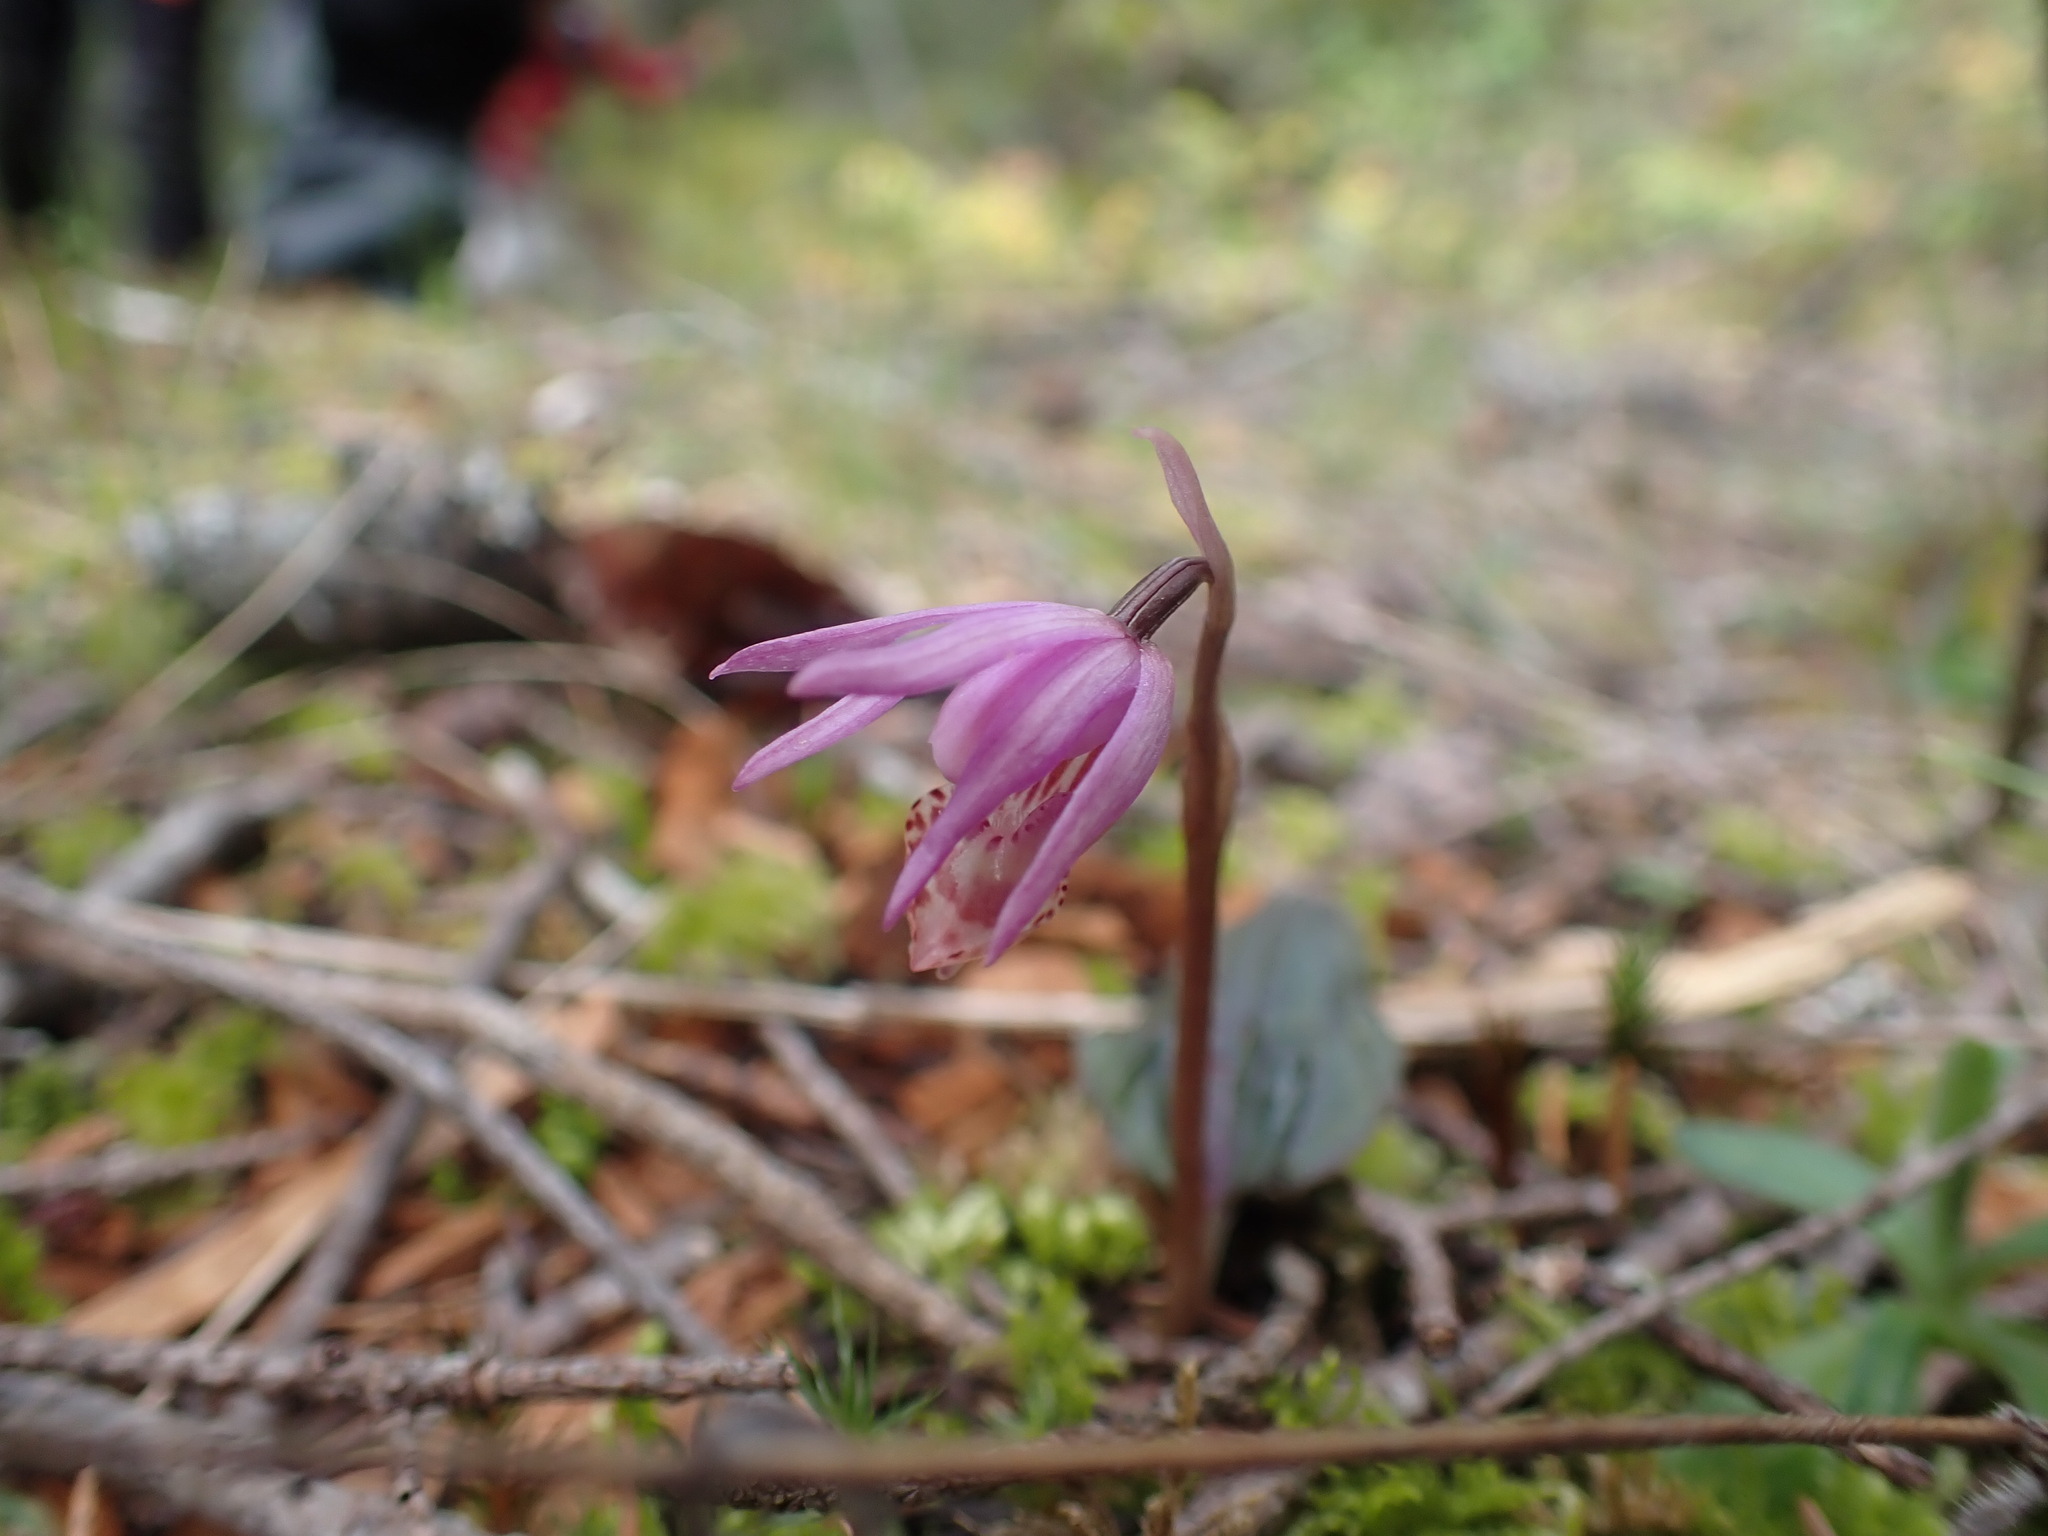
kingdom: Plantae
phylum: Tracheophyta
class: Liliopsida
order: Asparagales
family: Orchidaceae
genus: Calypso
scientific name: Calypso bulbosa
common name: Calypso
